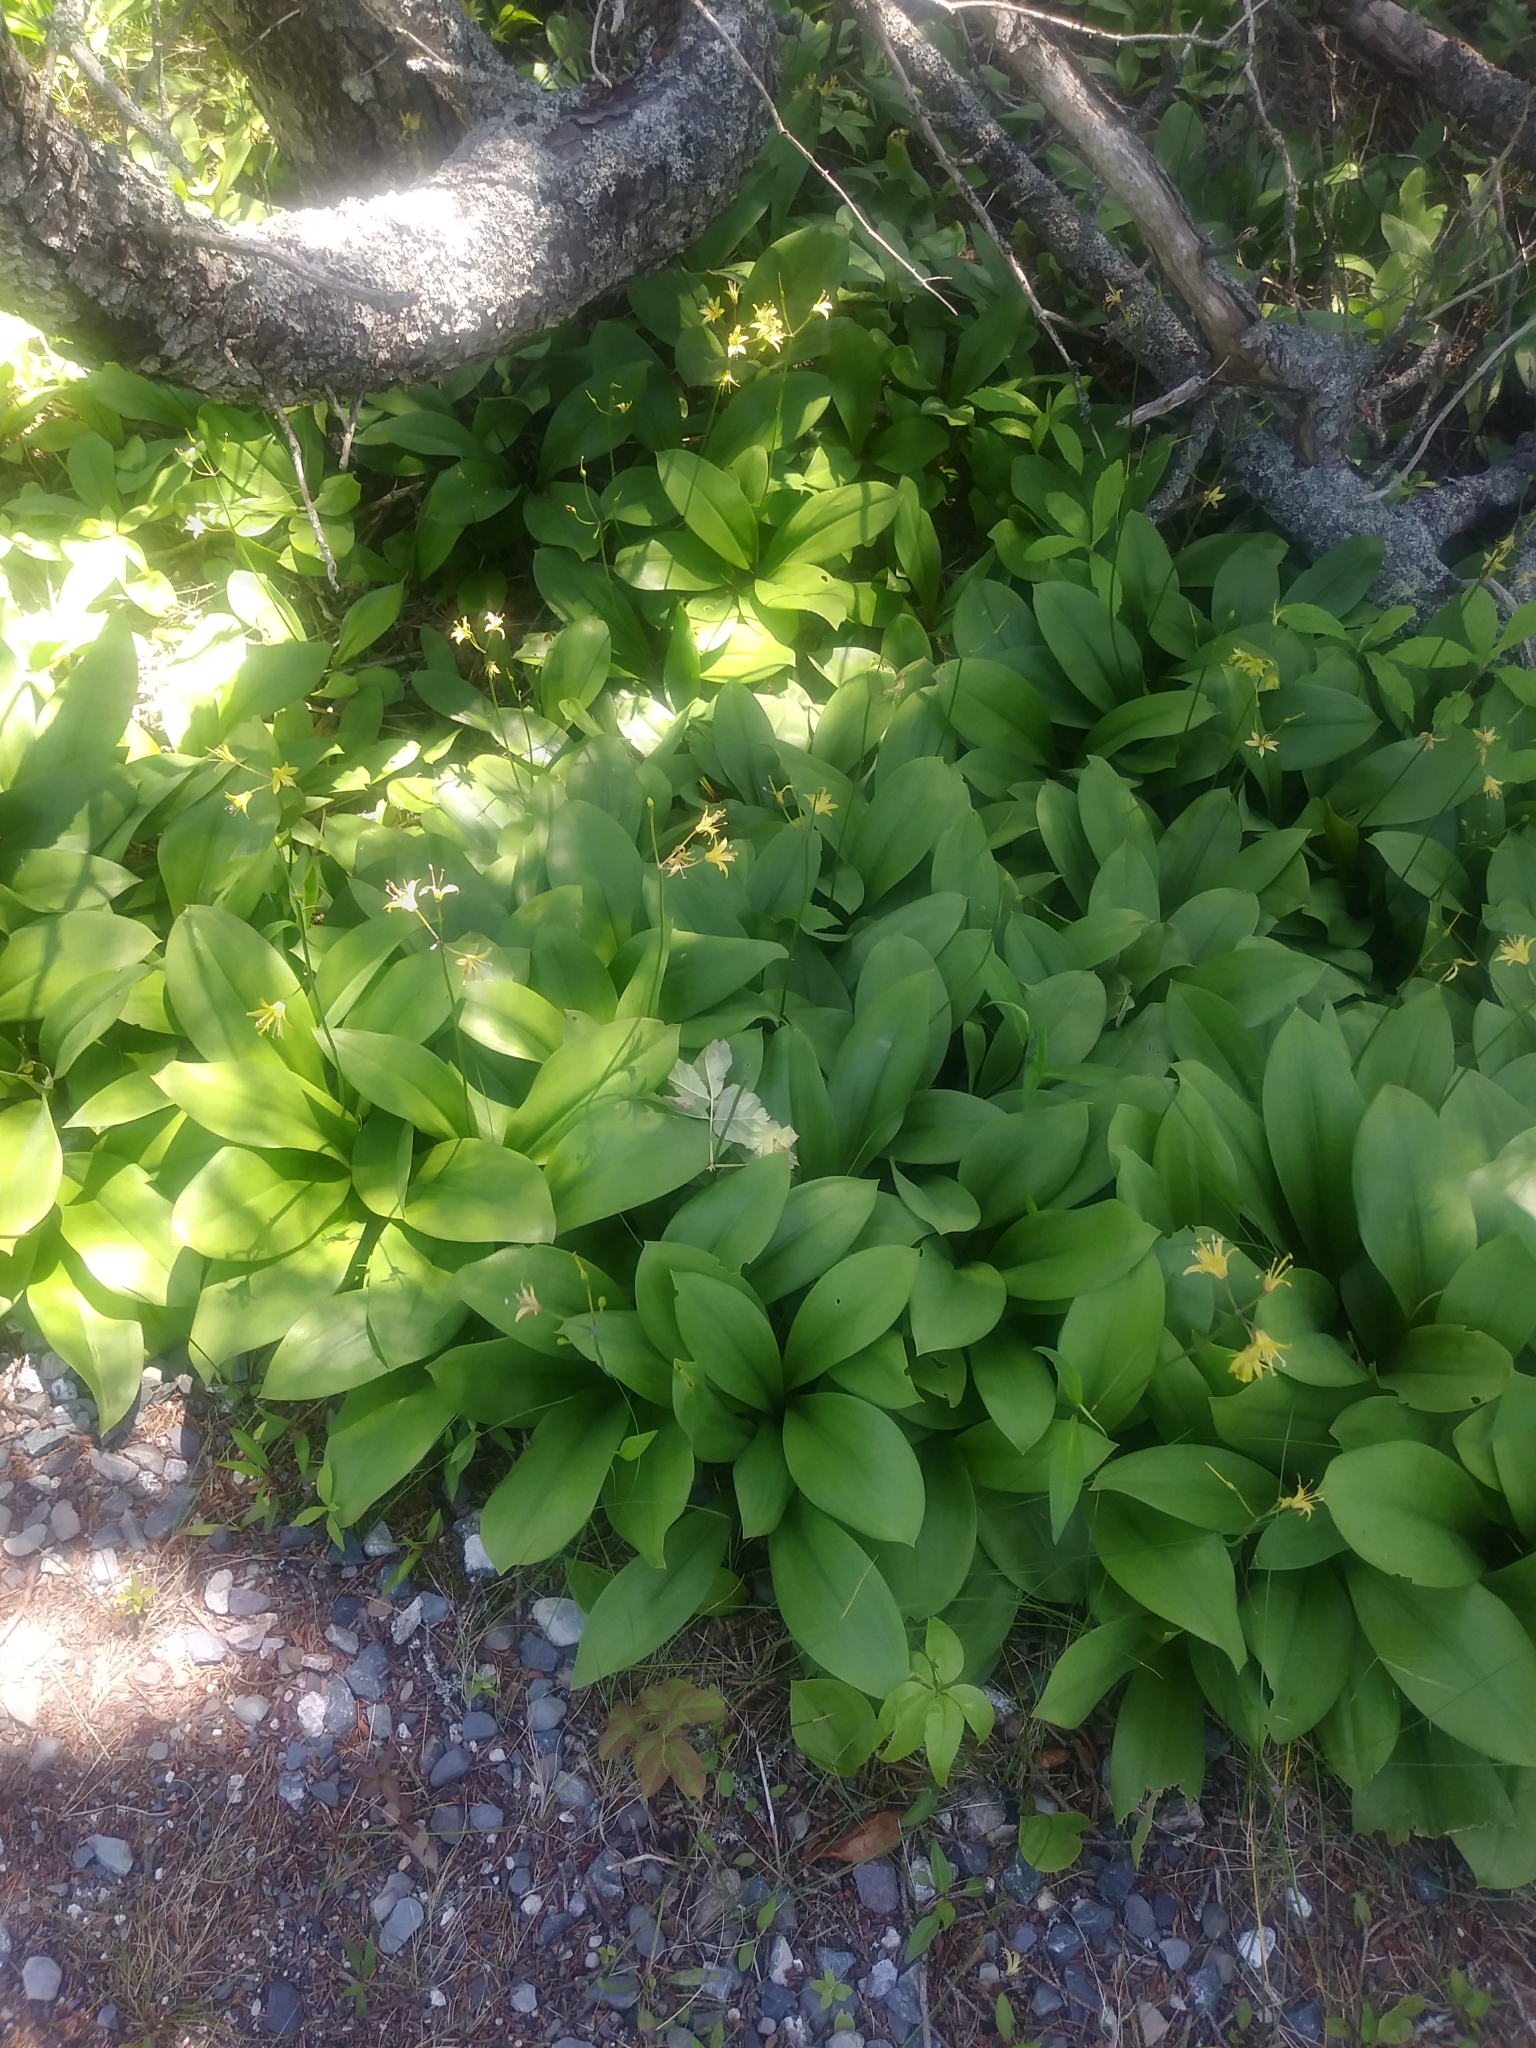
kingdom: Plantae
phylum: Tracheophyta
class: Liliopsida
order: Liliales
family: Liliaceae
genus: Clintonia
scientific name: Clintonia borealis
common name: Yellow clintonia
